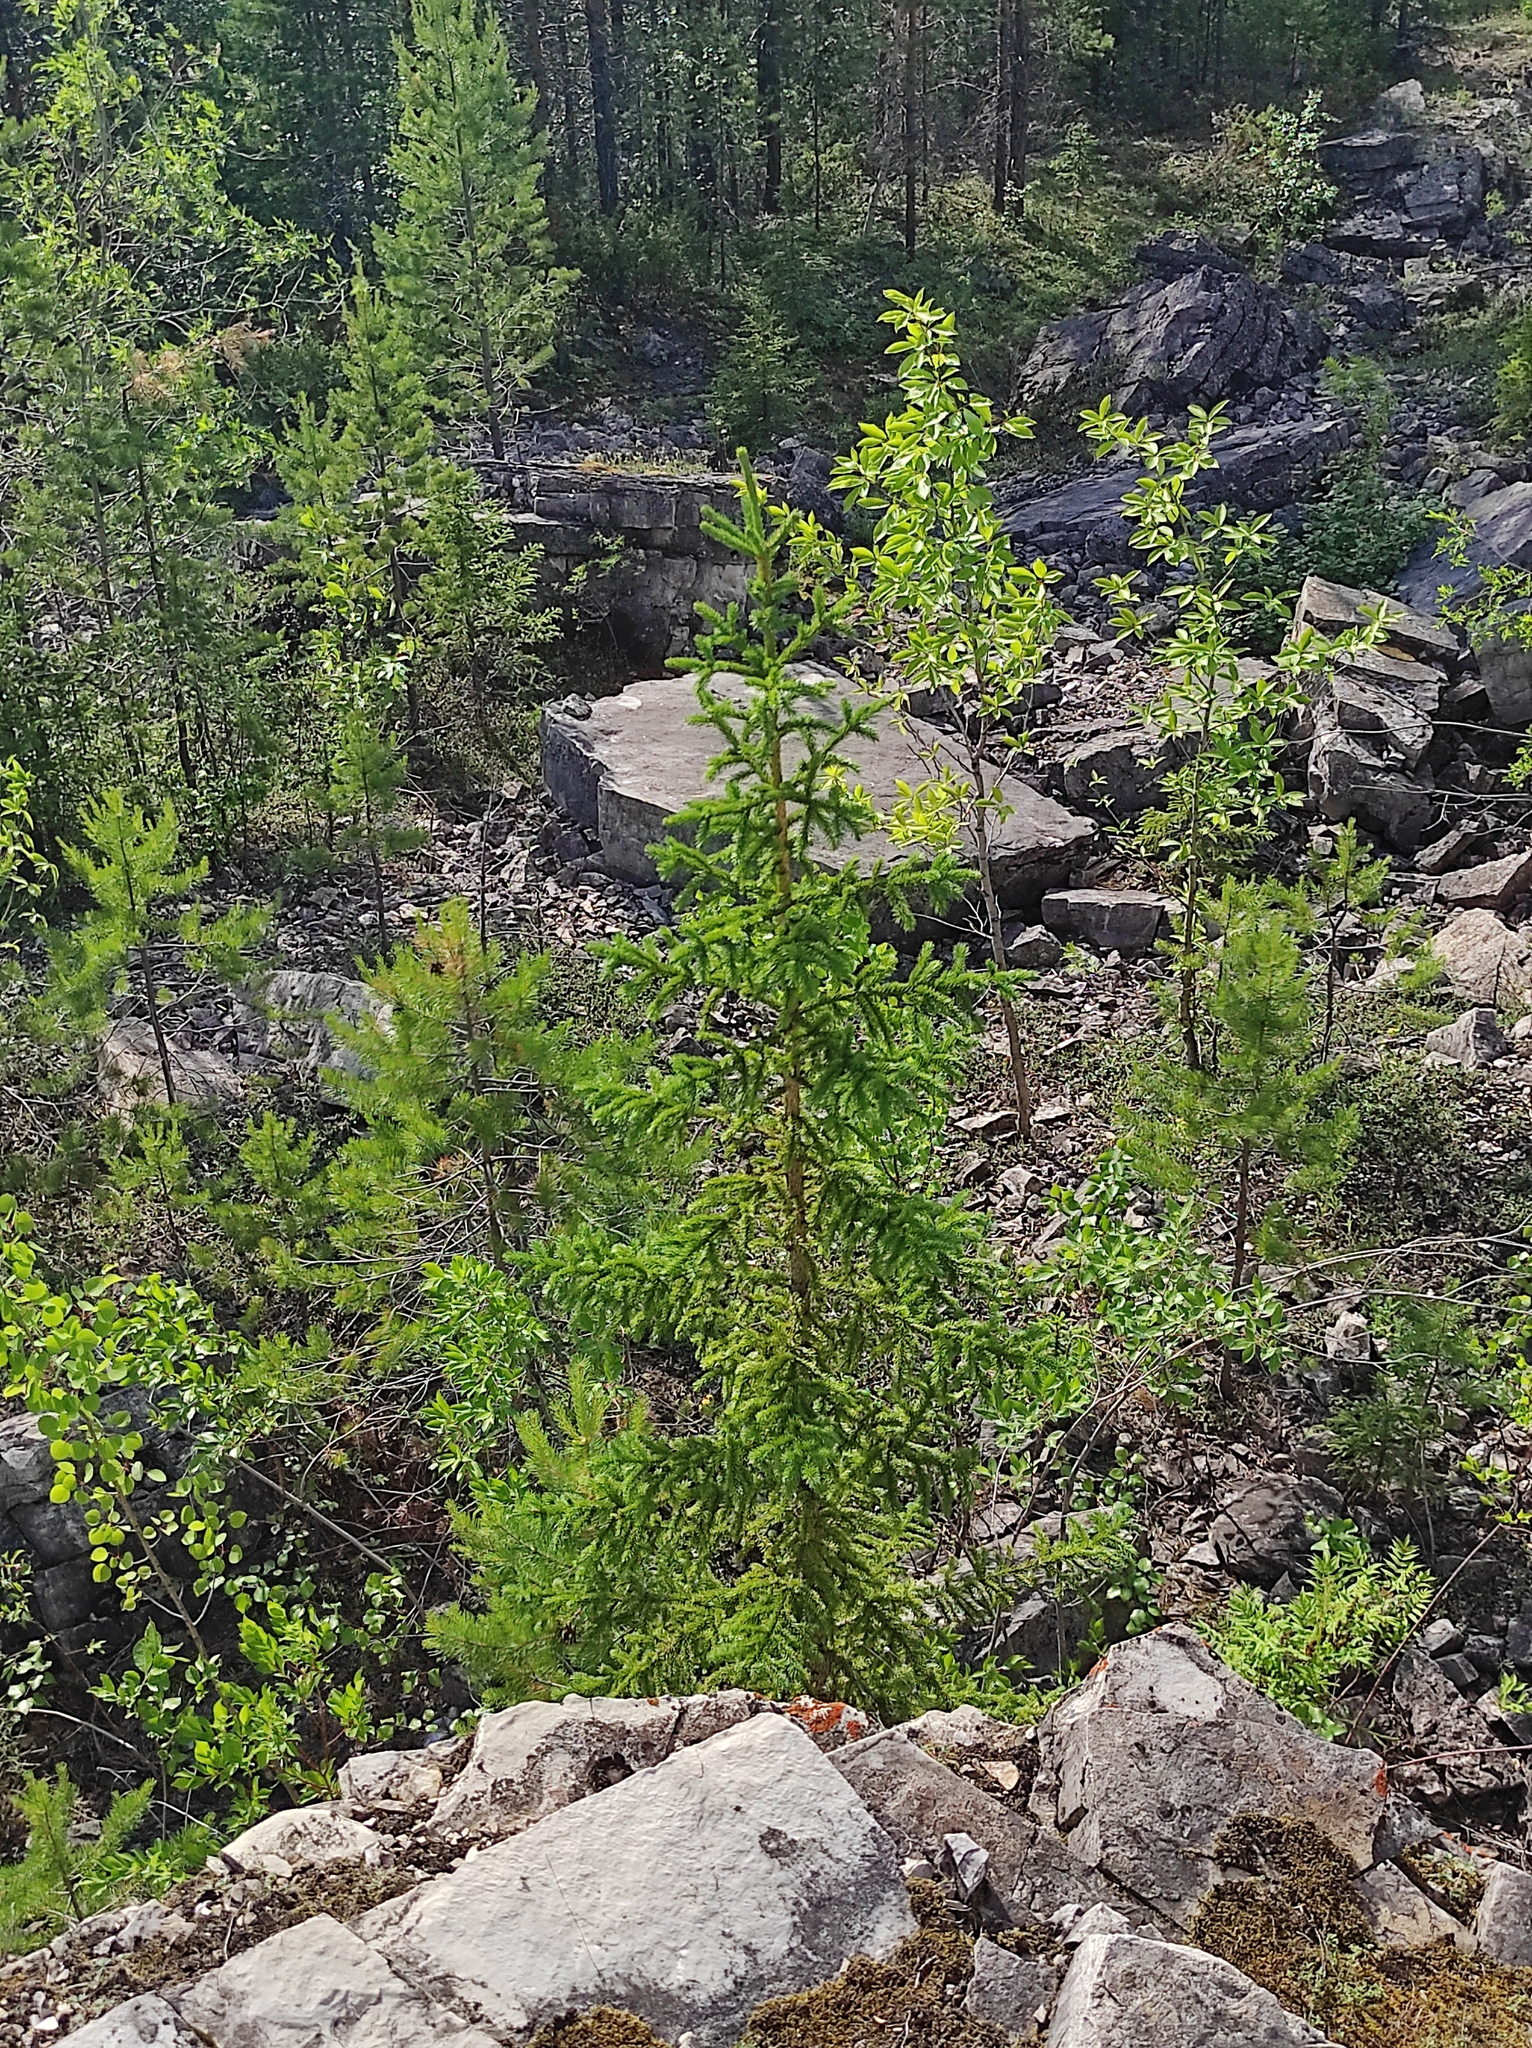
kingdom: Plantae
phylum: Tracheophyta
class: Pinopsida
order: Pinales
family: Pinaceae
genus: Picea
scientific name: Picea obovata
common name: Siberian spruce
